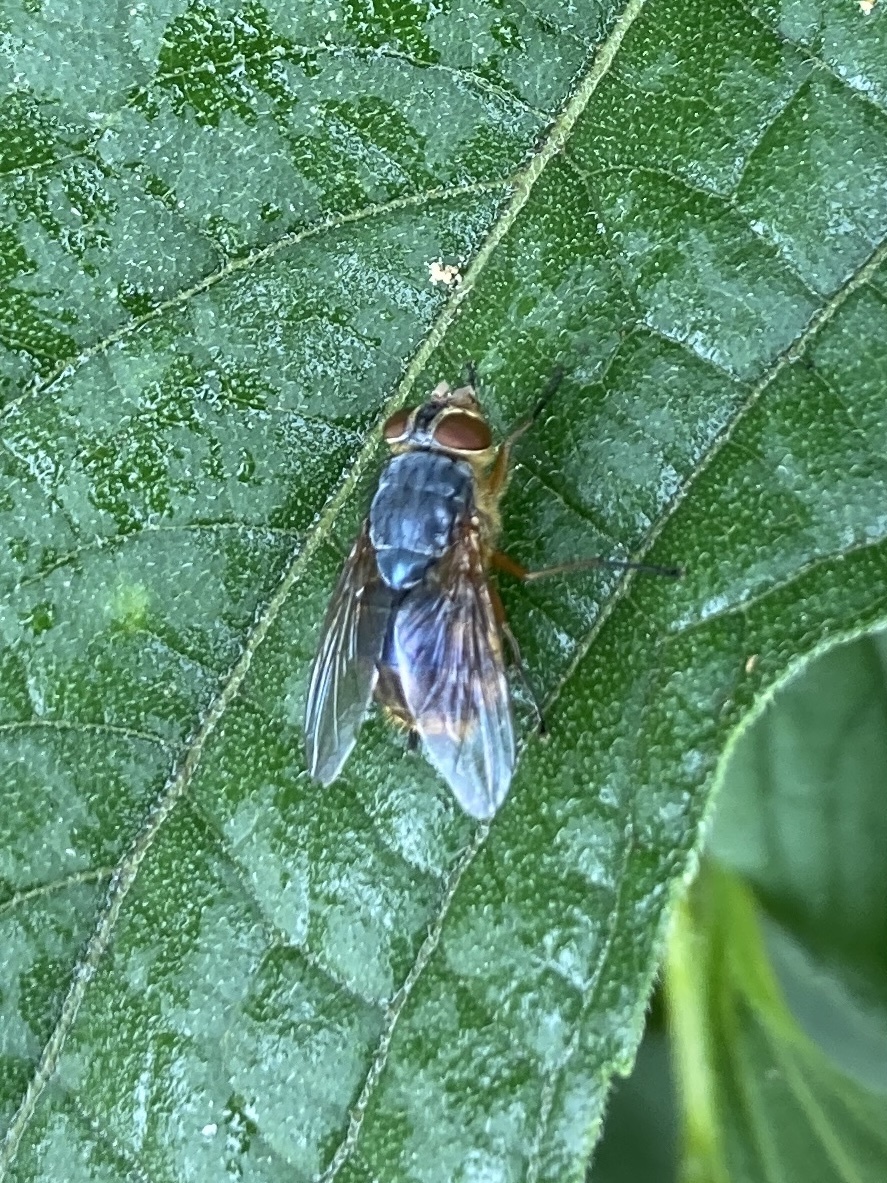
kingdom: Animalia
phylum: Arthropoda
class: Insecta
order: Diptera
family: Calliphoridae
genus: Calliphora
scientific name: Calliphora hilli
